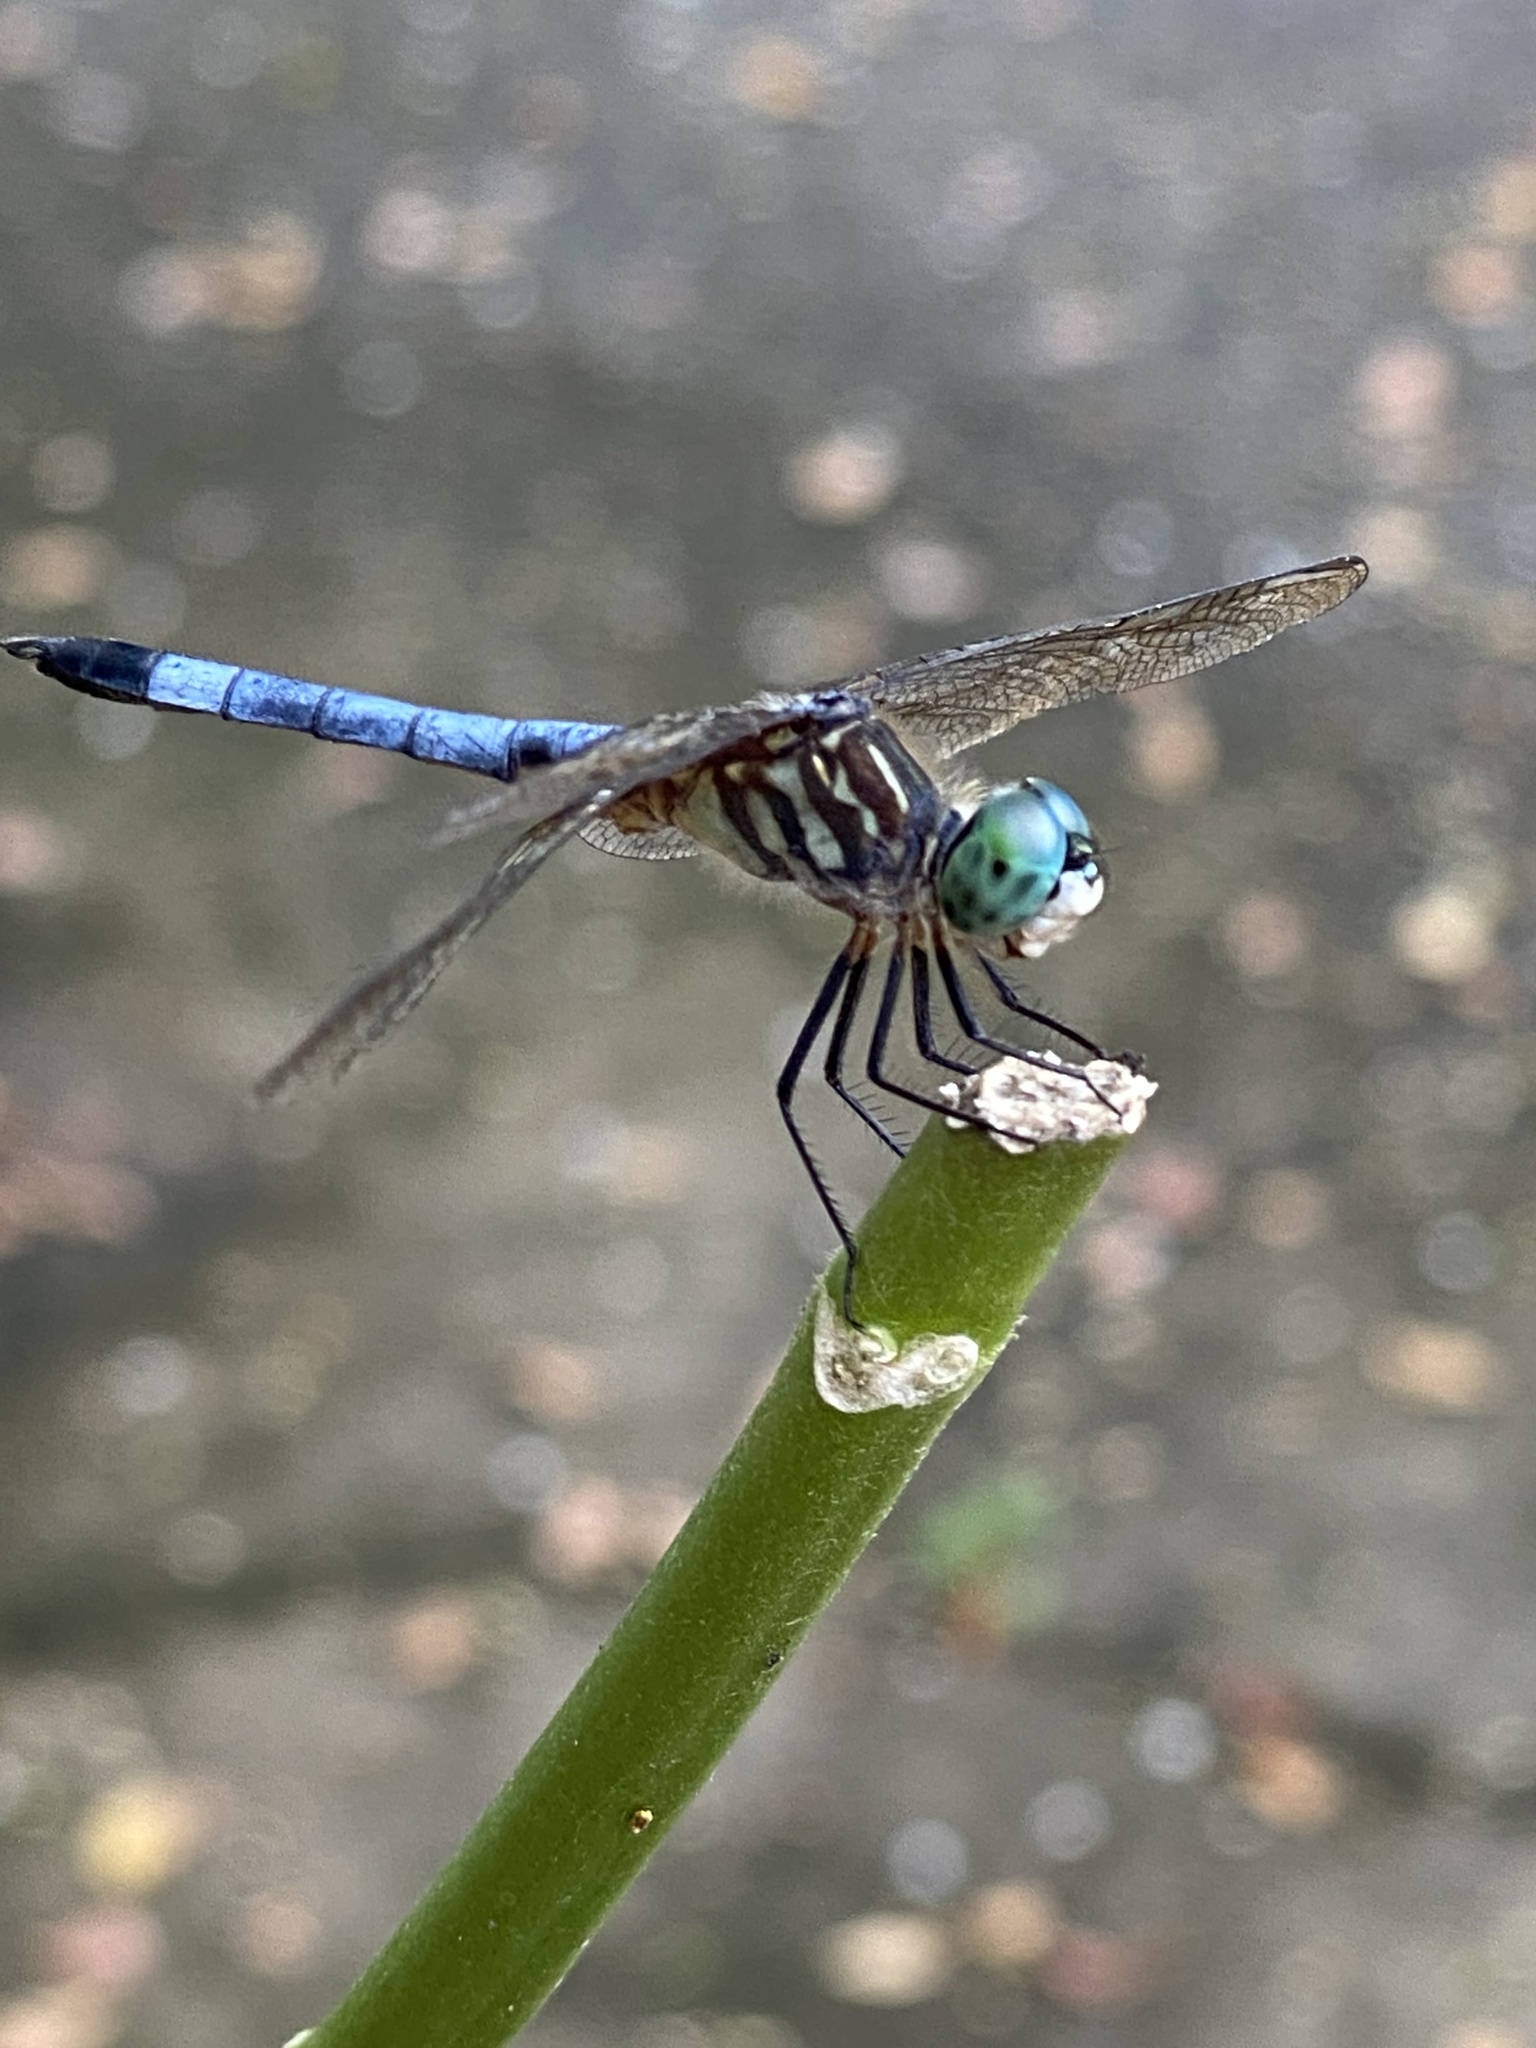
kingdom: Animalia
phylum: Arthropoda
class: Insecta
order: Odonata
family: Libellulidae
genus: Pachydiplax
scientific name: Pachydiplax longipennis
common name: Blue dasher
